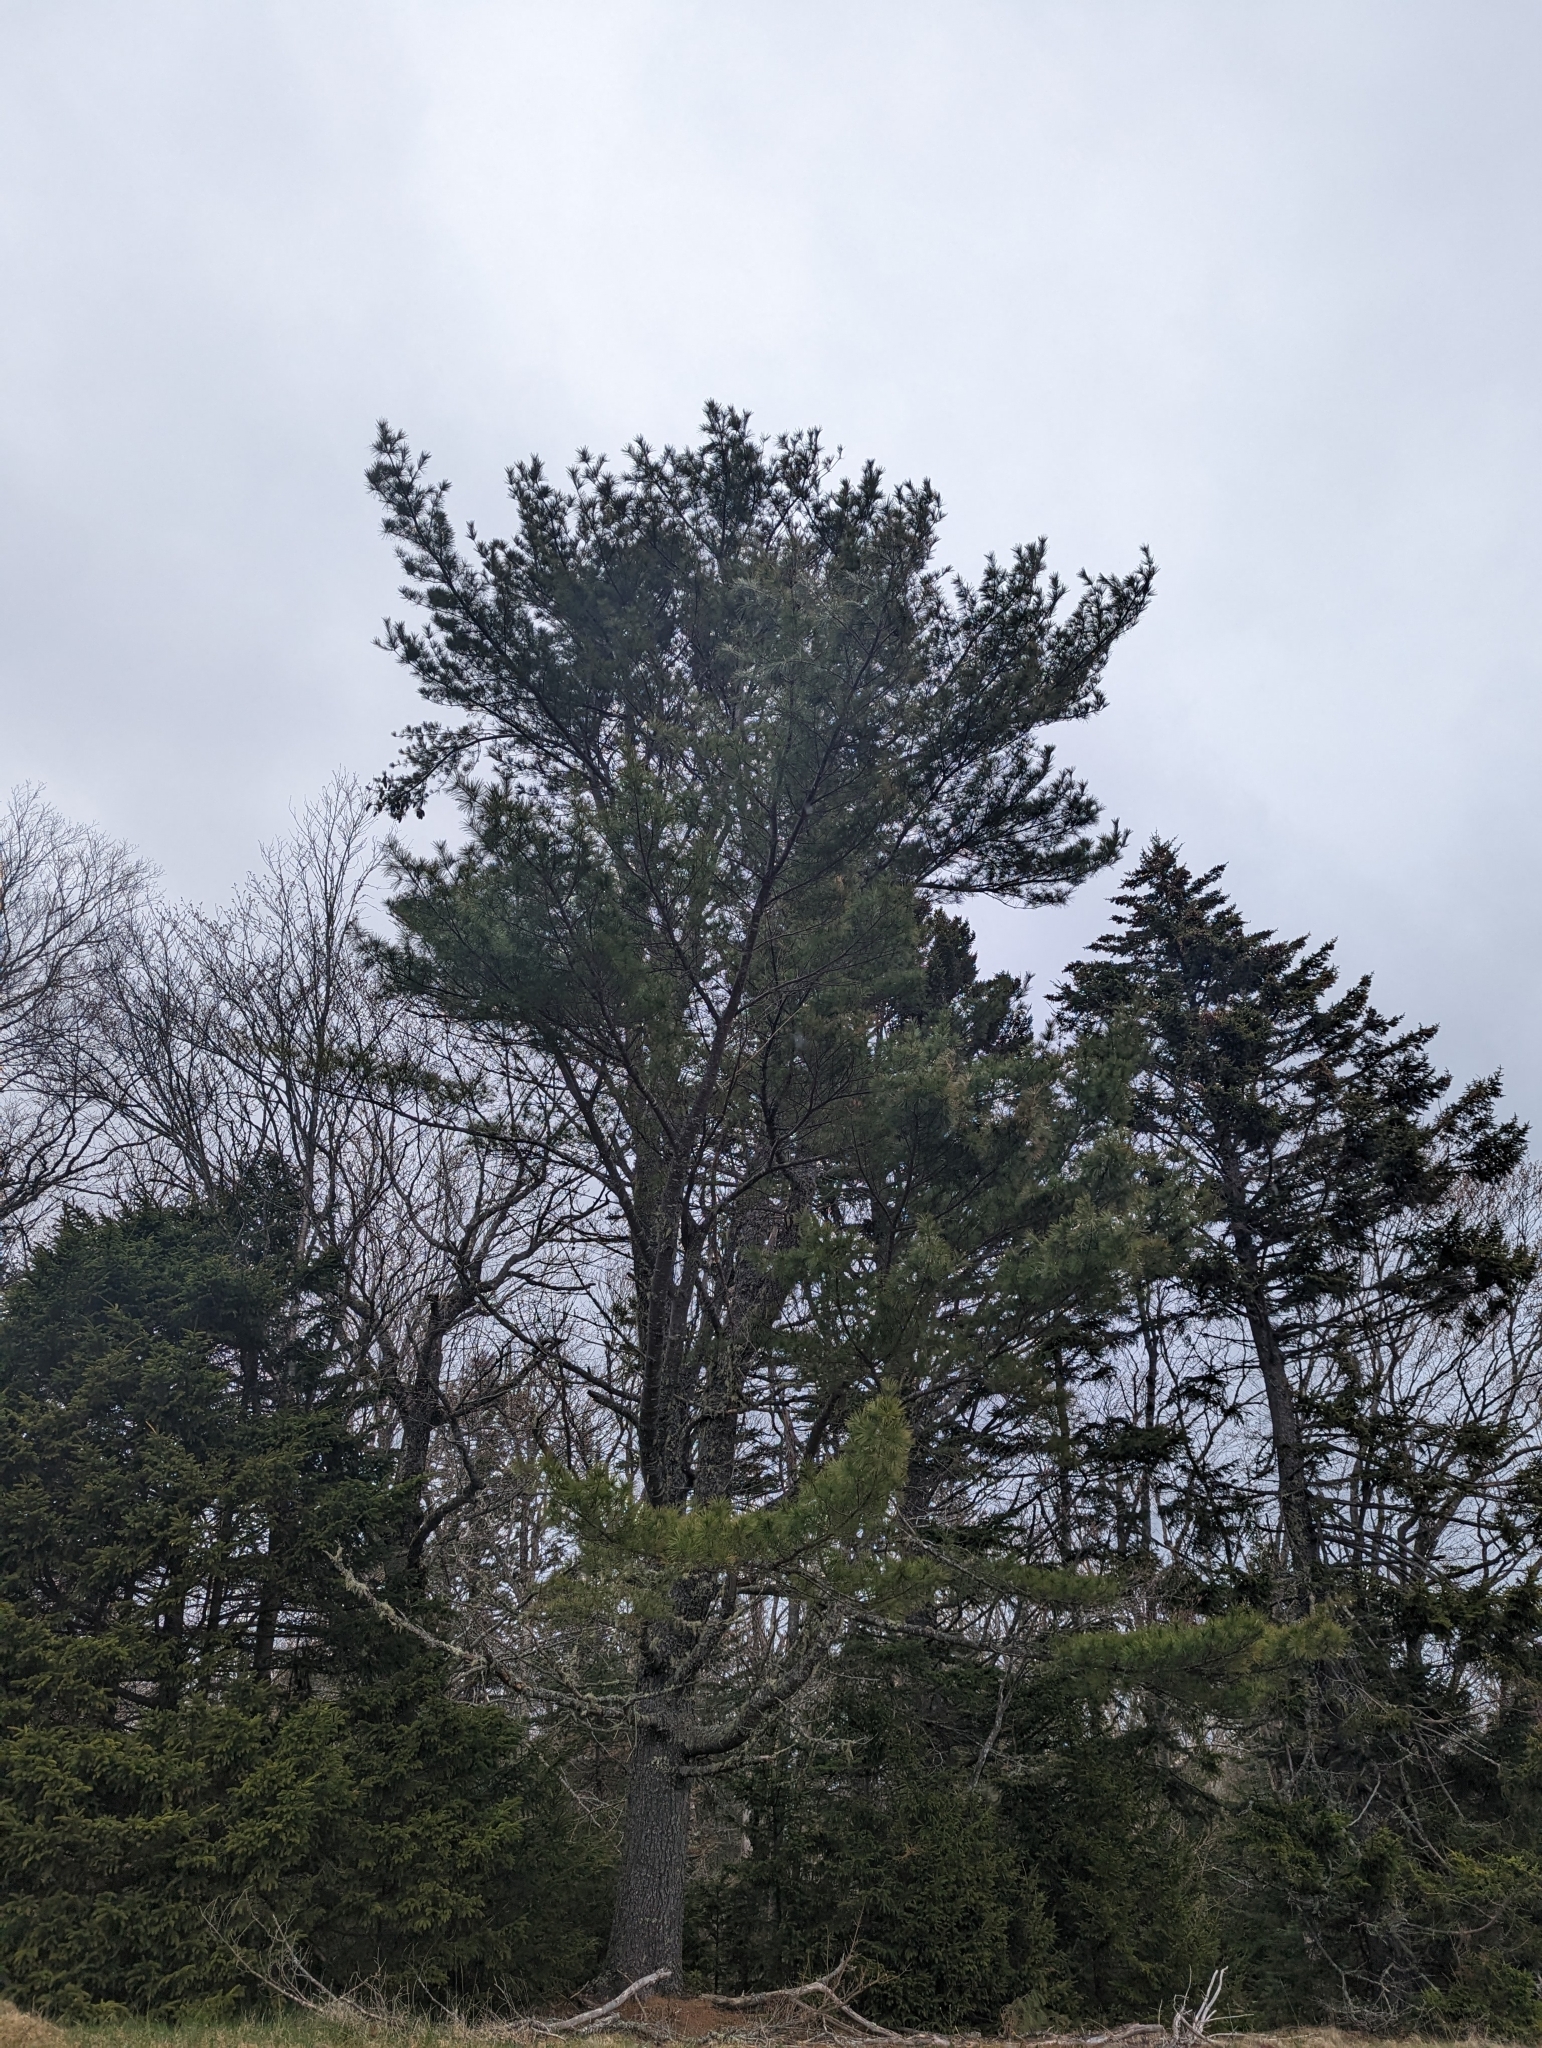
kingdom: Plantae
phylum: Tracheophyta
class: Pinopsida
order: Pinales
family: Pinaceae
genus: Pinus
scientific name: Pinus strobus
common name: Weymouth pine
